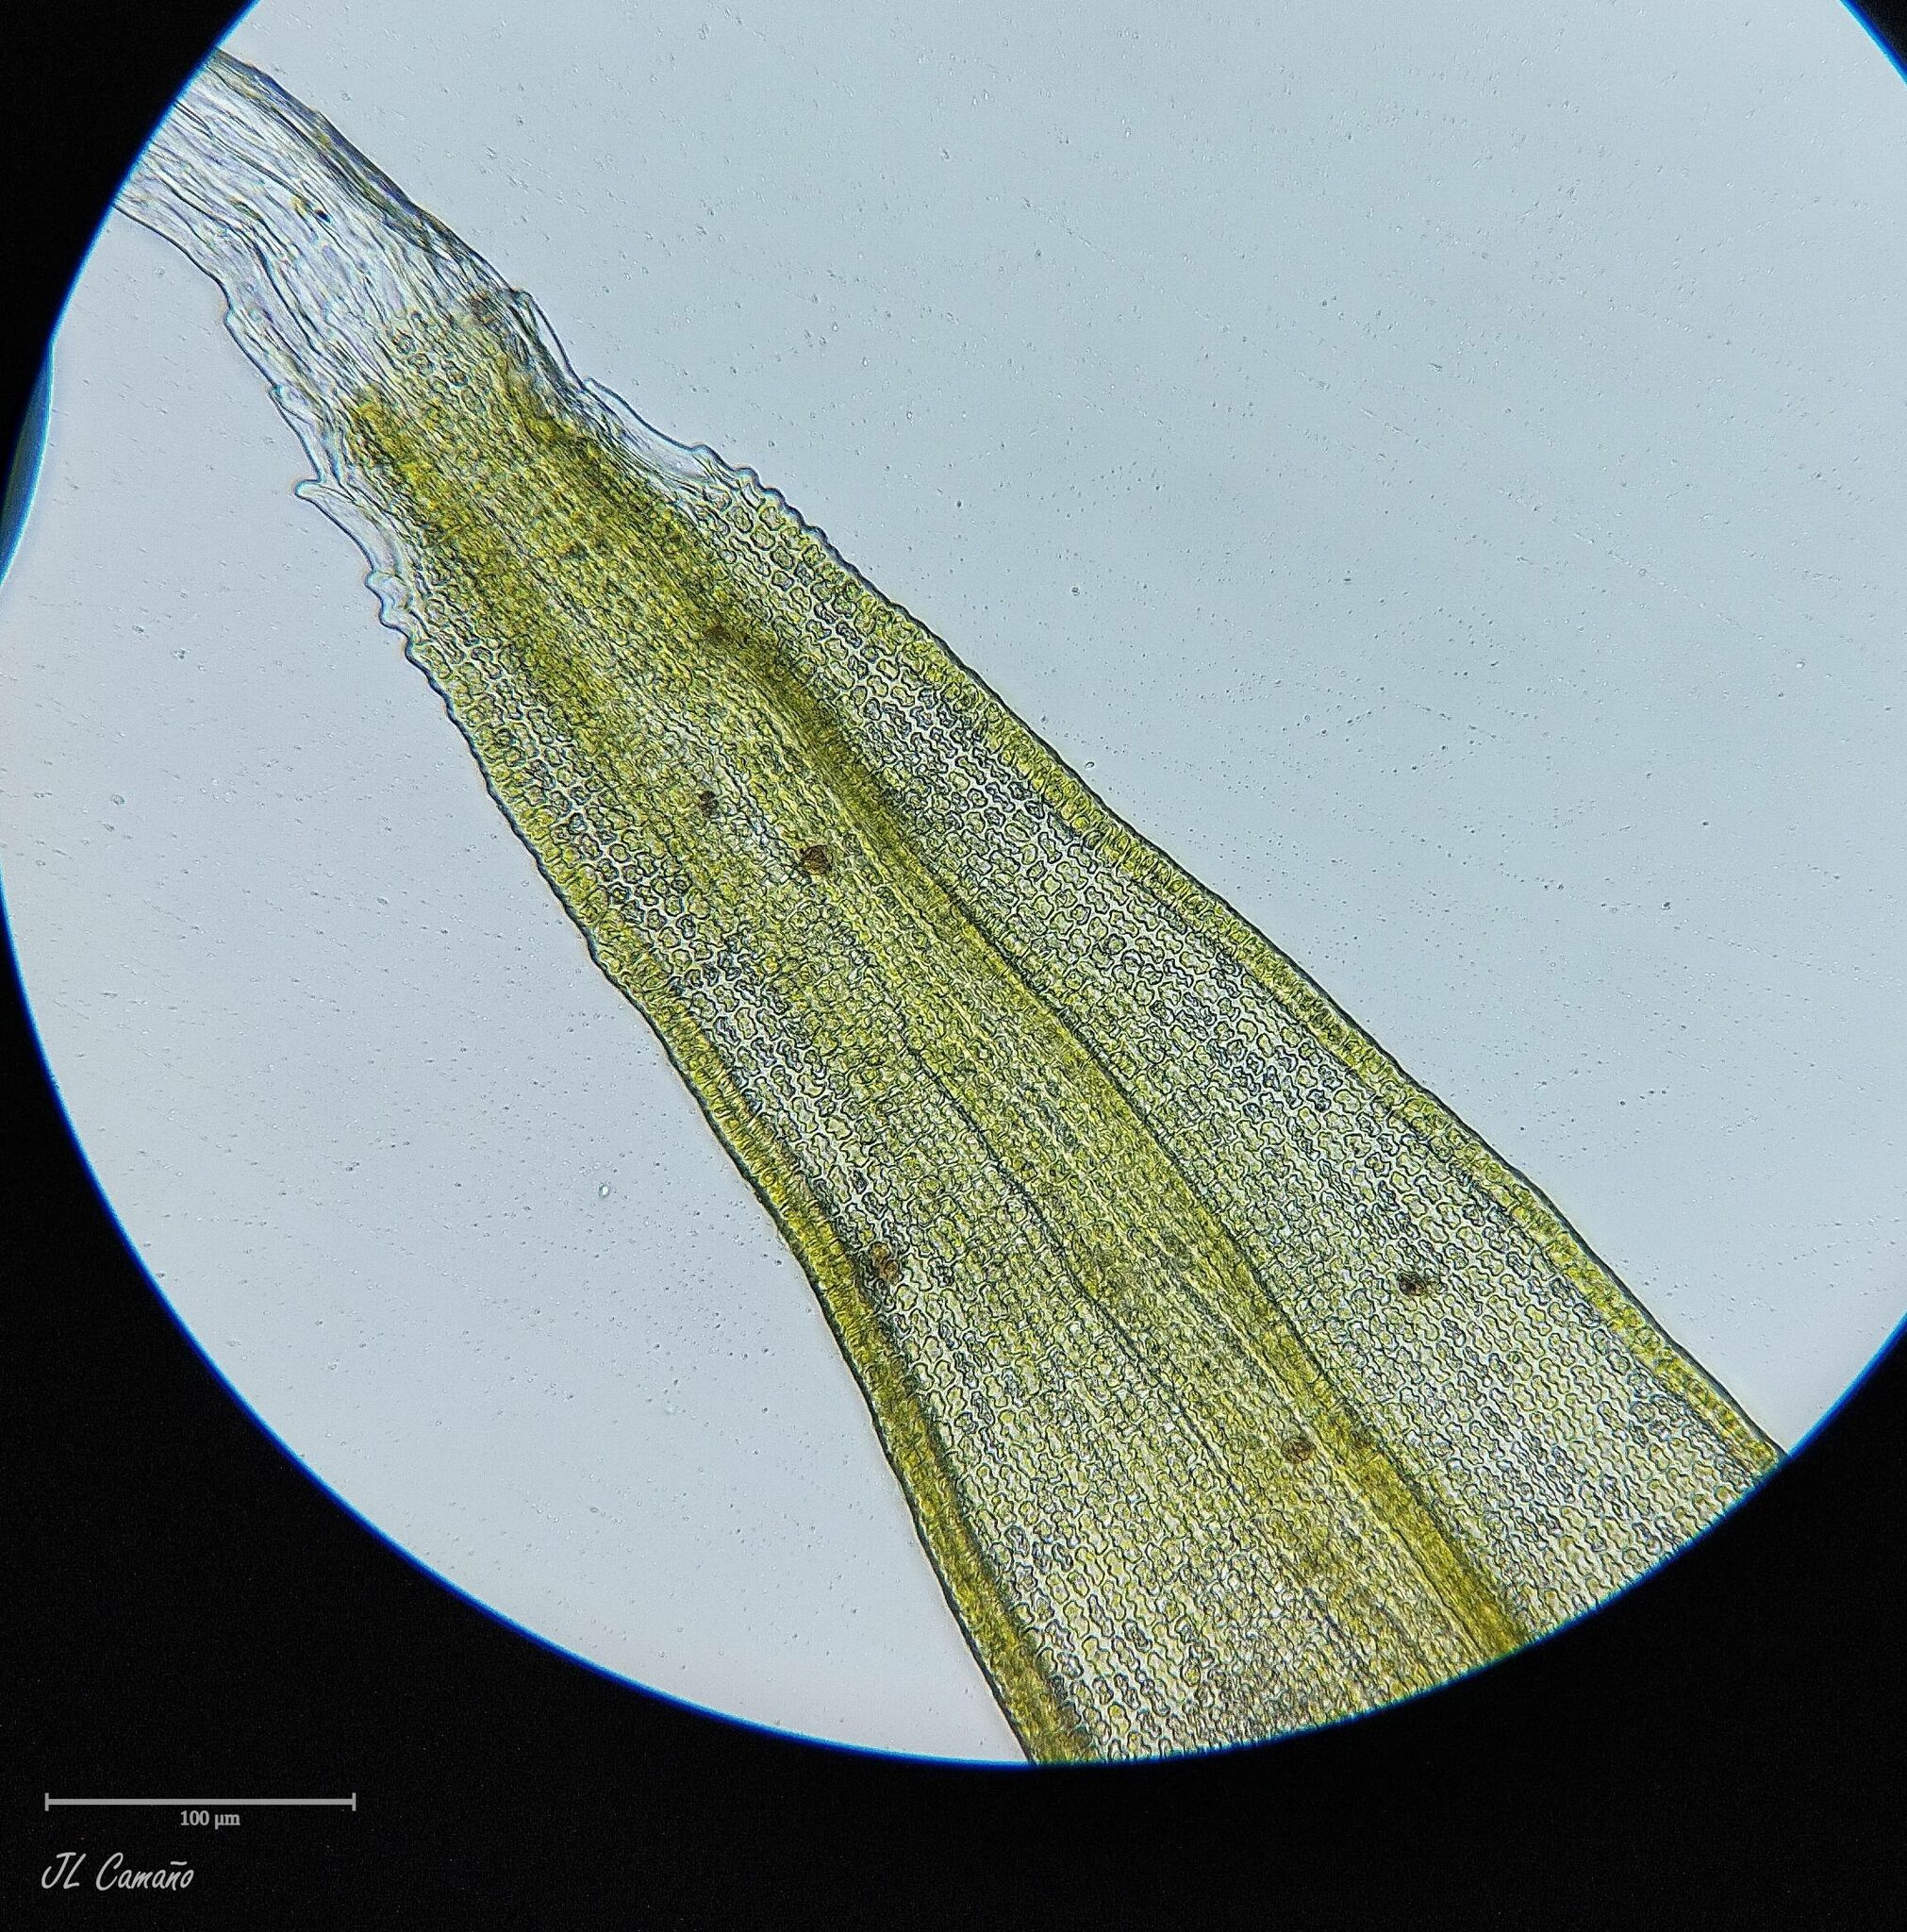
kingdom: Plantae
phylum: Bryophyta
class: Bryopsida
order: Grimmiales
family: Grimmiaceae
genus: Bucklandiella
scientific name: Bucklandiella heterosticha
